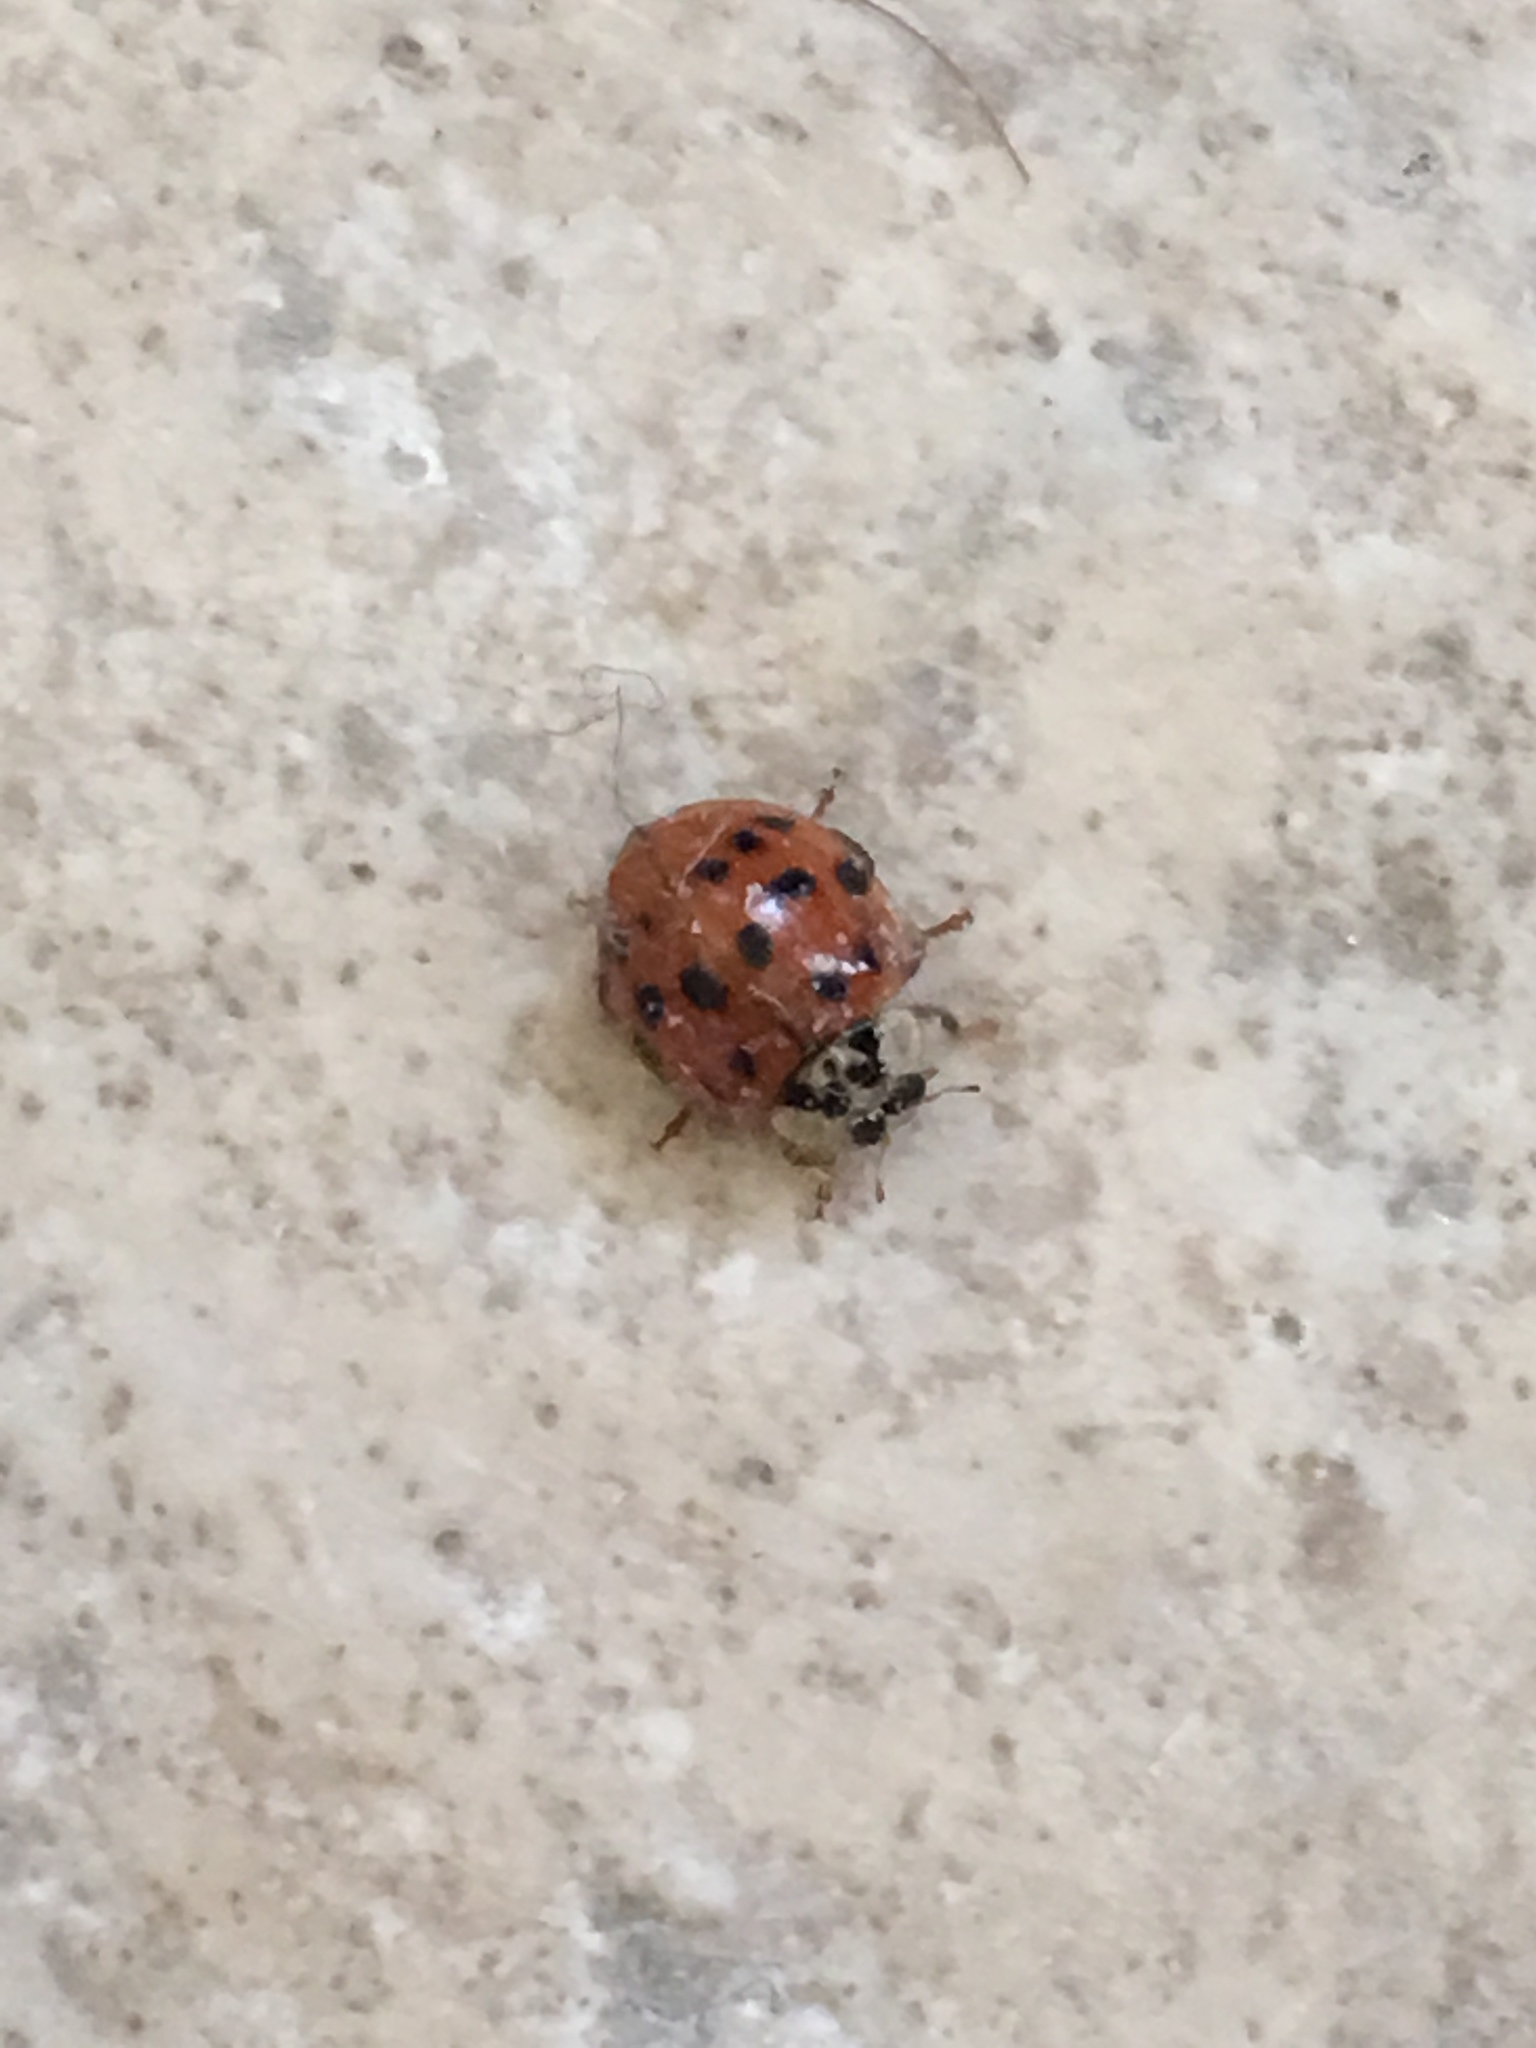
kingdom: Animalia
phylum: Arthropoda
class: Insecta
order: Coleoptera
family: Coccinellidae
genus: Harmonia
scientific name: Harmonia axyridis
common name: Harlequin ladybird
